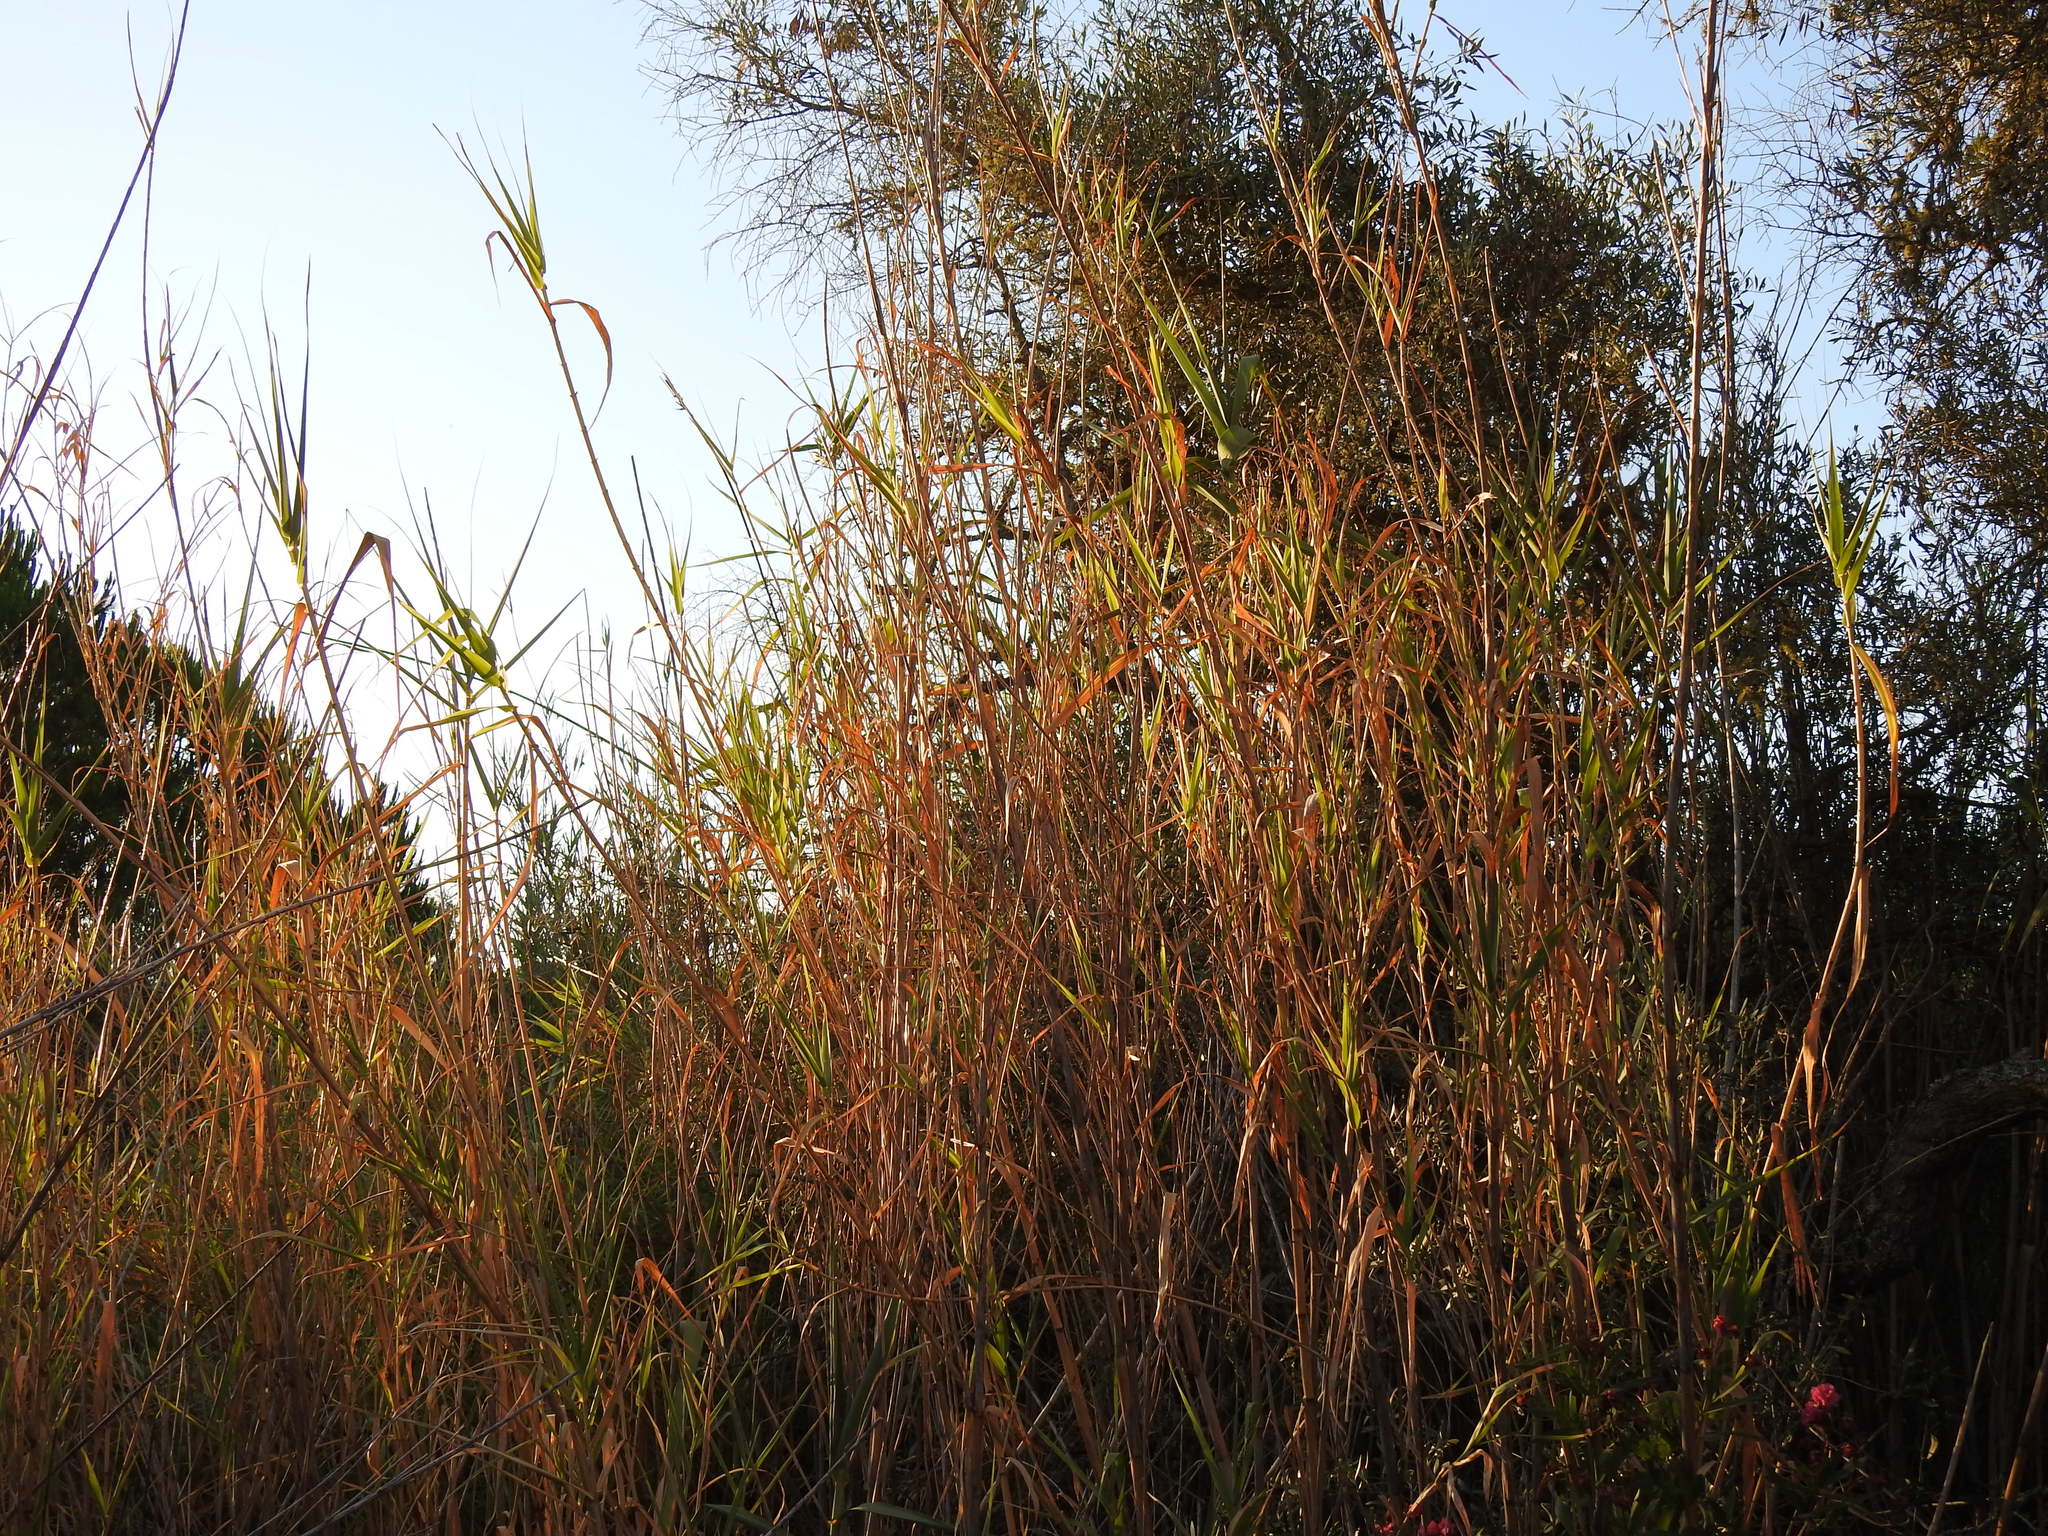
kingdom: Plantae
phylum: Tracheophyta
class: Liliopsida
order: Poales
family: Poaceae
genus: Arundo
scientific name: Arundo donax
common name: Giant reed
